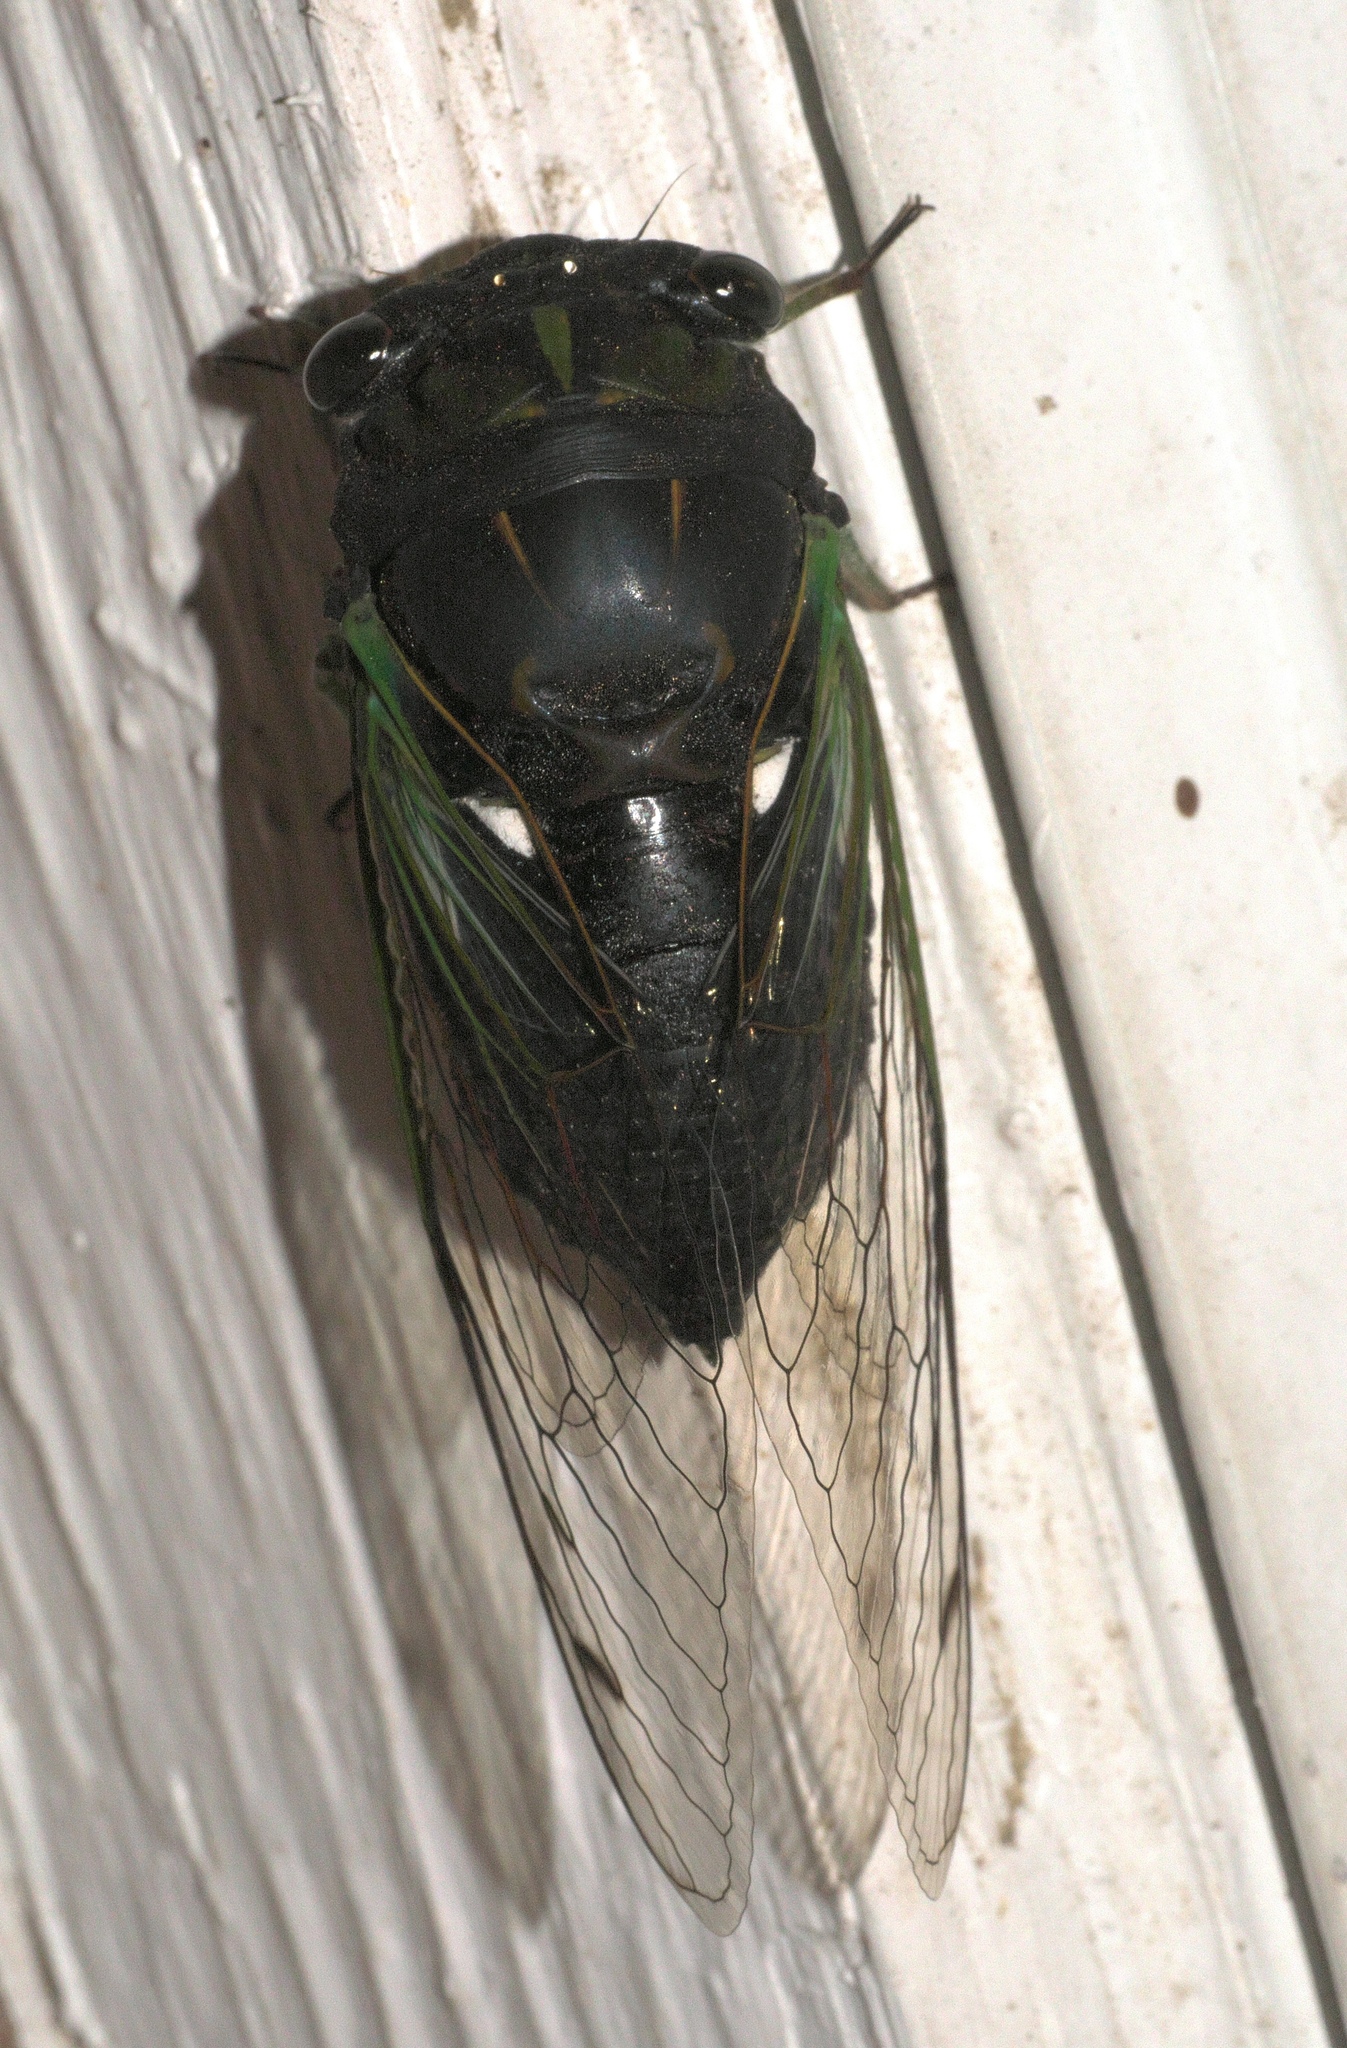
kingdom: Animalia
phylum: Arthropoda
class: Insecta
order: Hemiptera
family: Cicadidae
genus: Neotibicen
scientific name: Neotibicen tibicen
